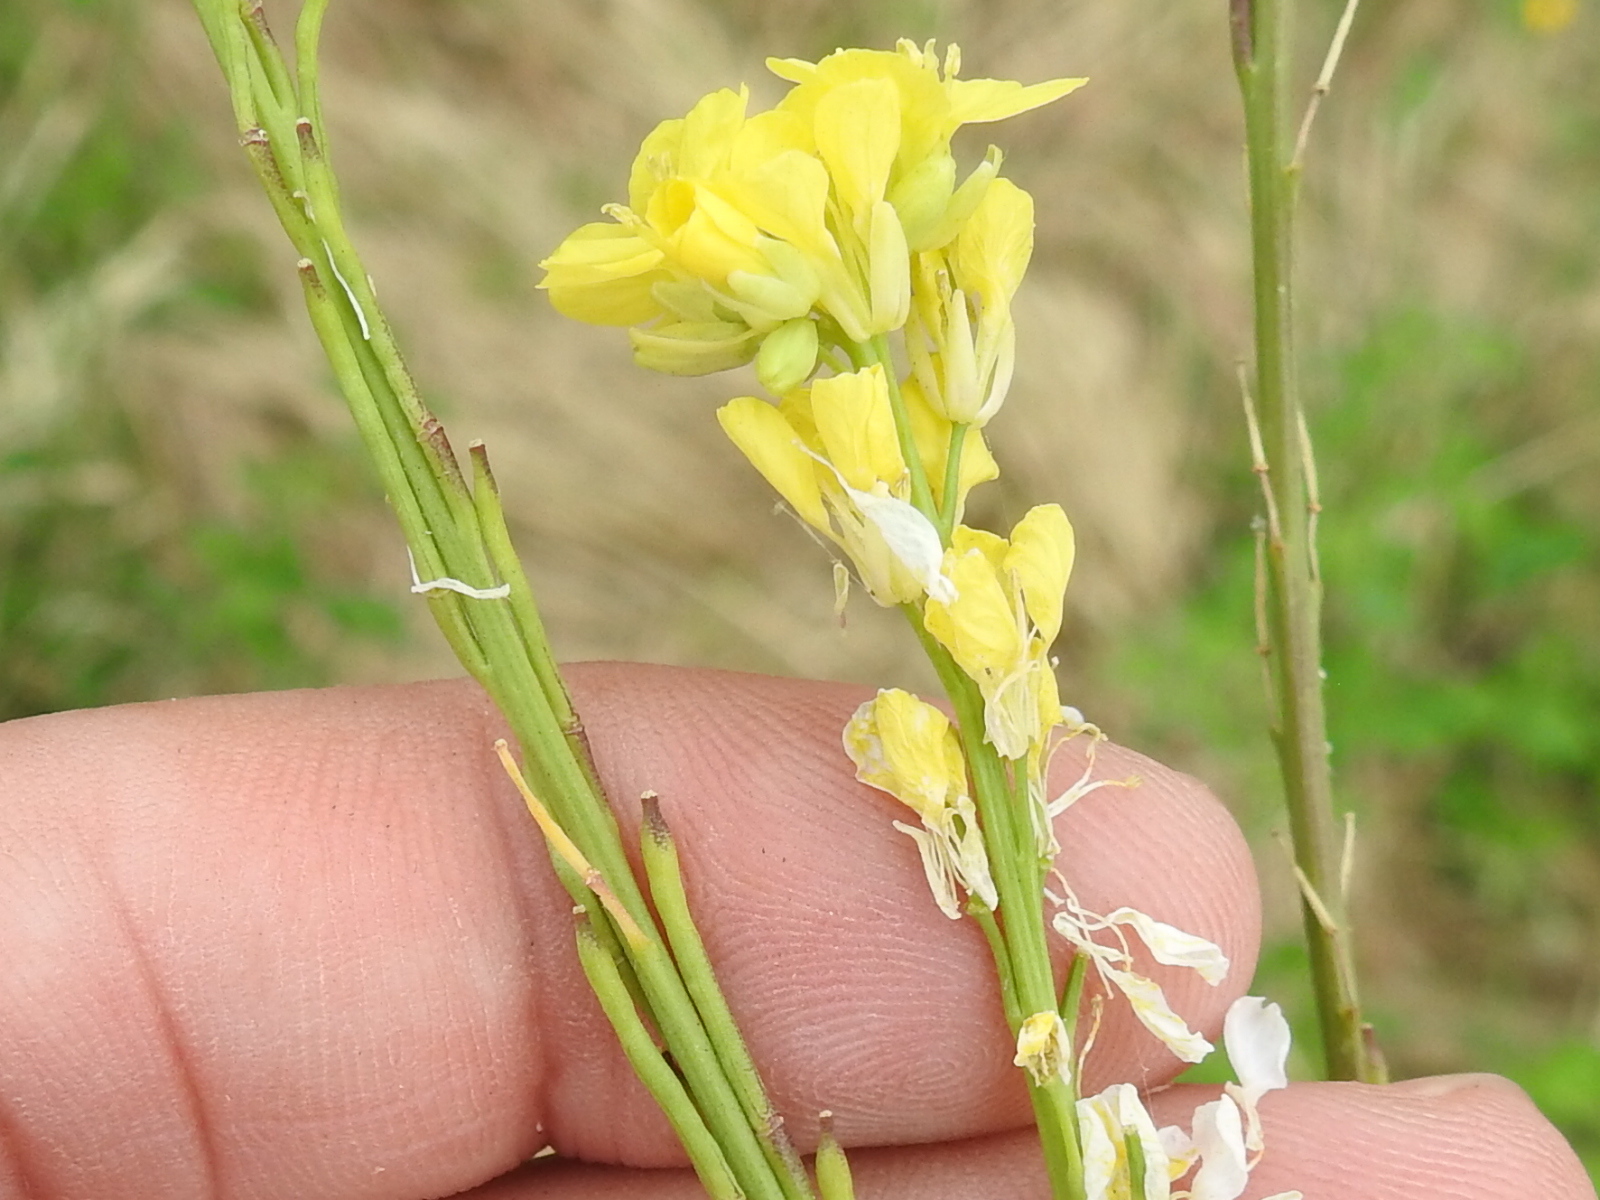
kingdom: Plantae
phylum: Tracheophyta
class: Magnoliopsida
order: Brassicales
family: Brassicaceae
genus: Brassica
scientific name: Brassica nigra
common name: Black mustard
